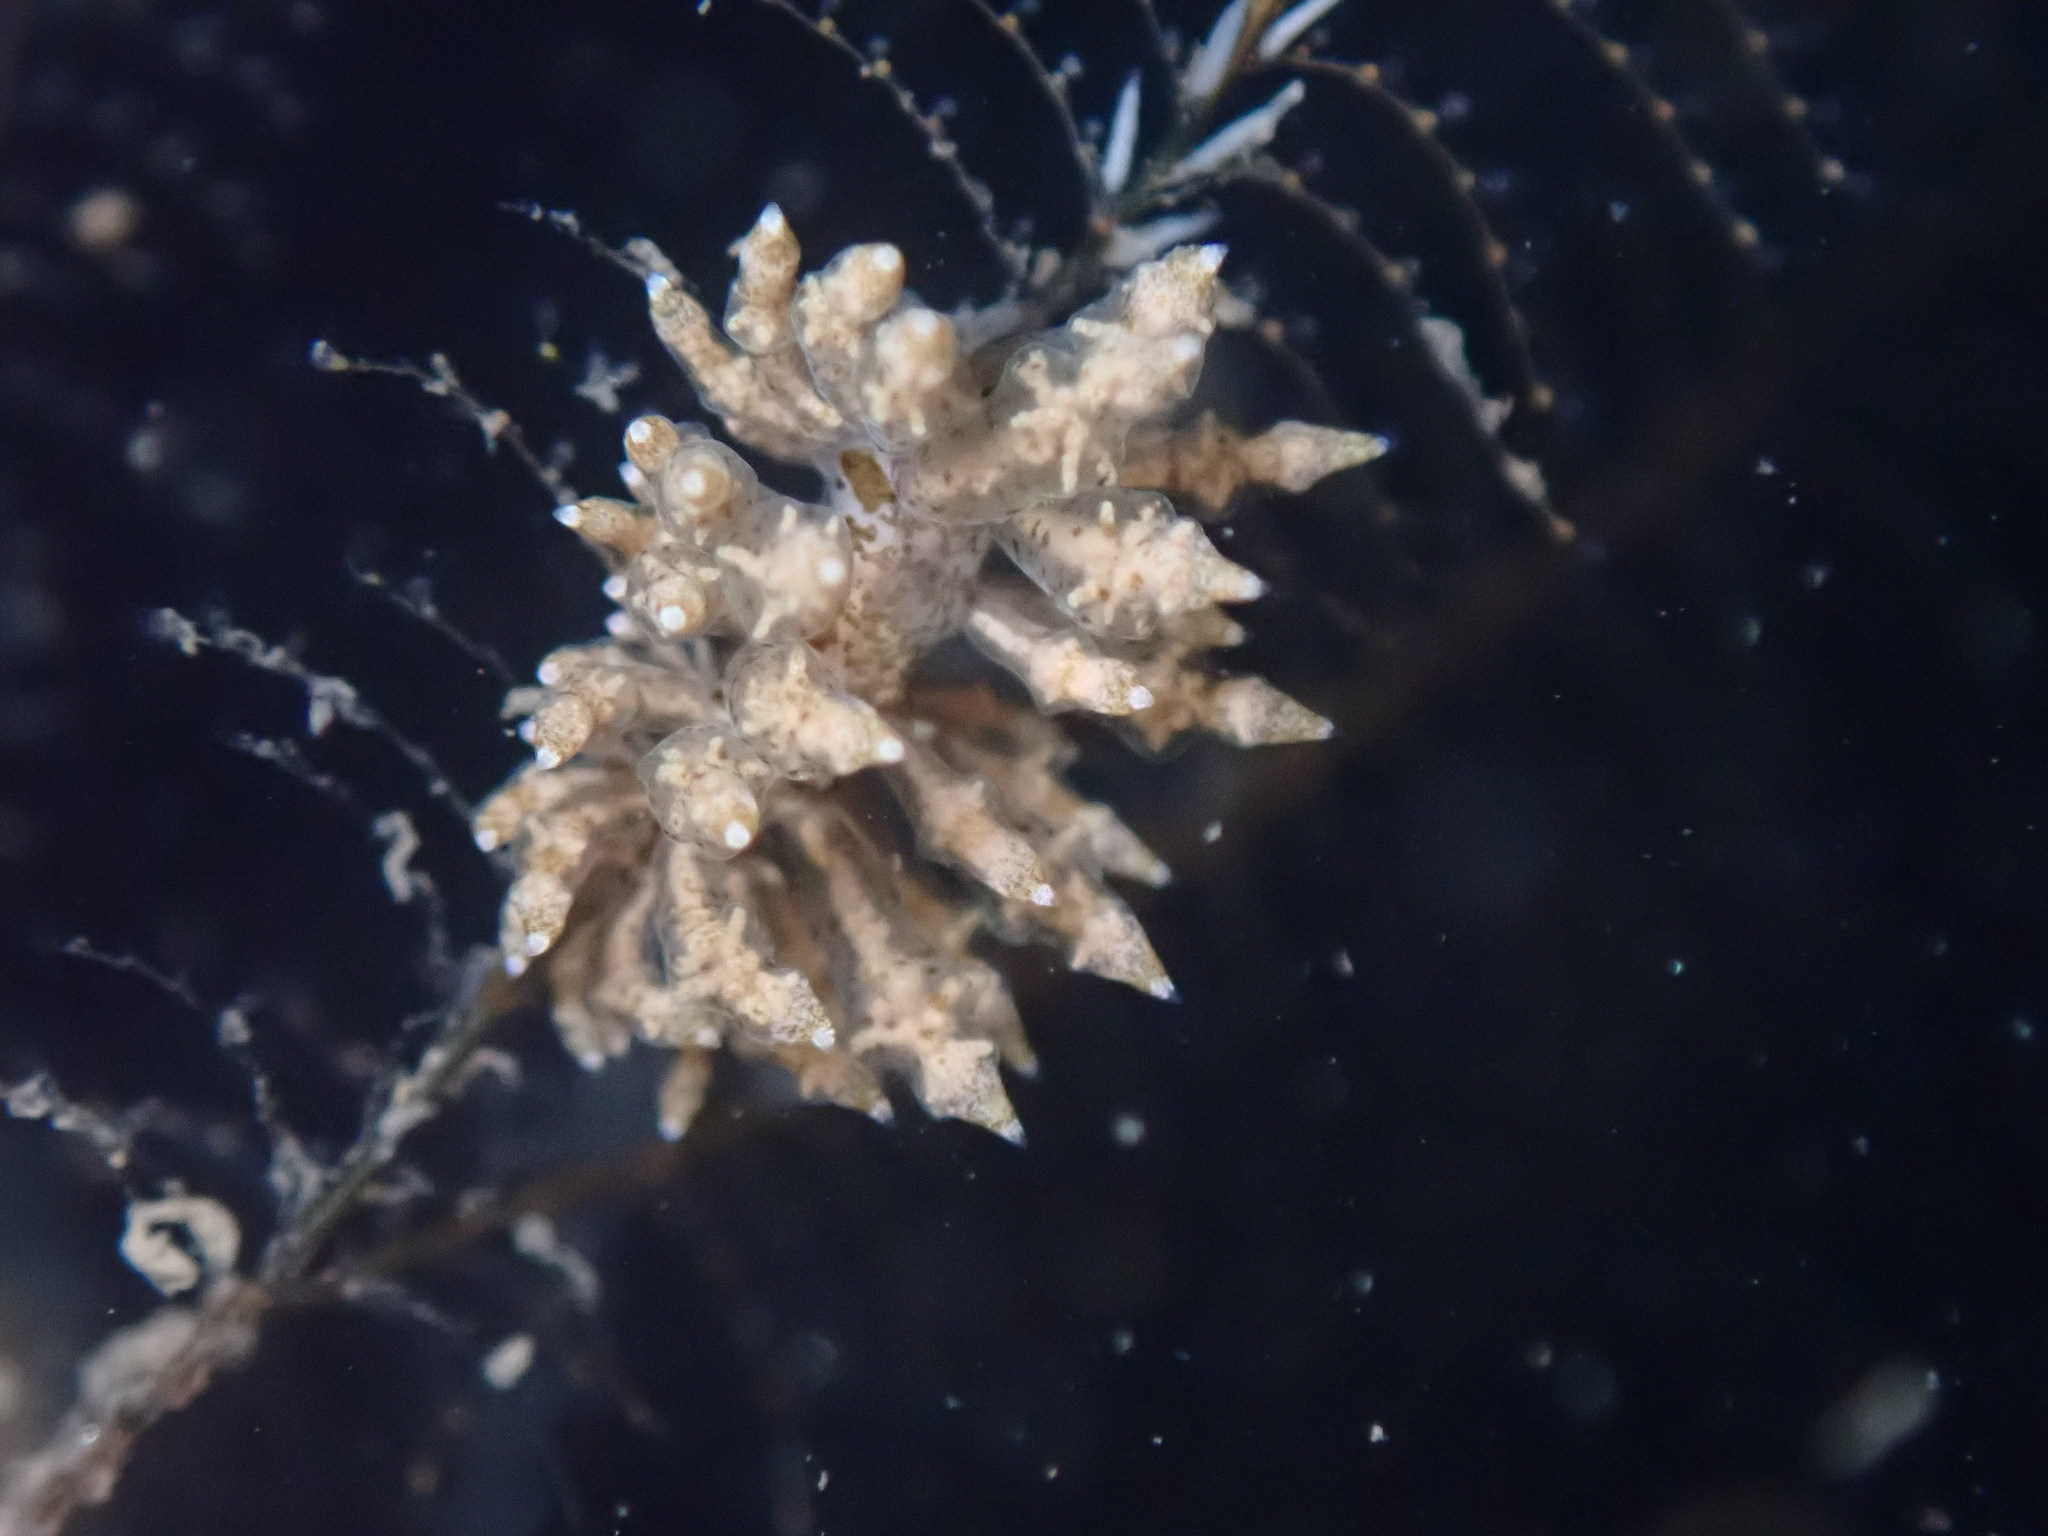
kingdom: Animalia
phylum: Mollusca
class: Gastropoda
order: Nudibranchia
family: Eubranchidae
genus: Eubranchus
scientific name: Eubranchus rustyus
